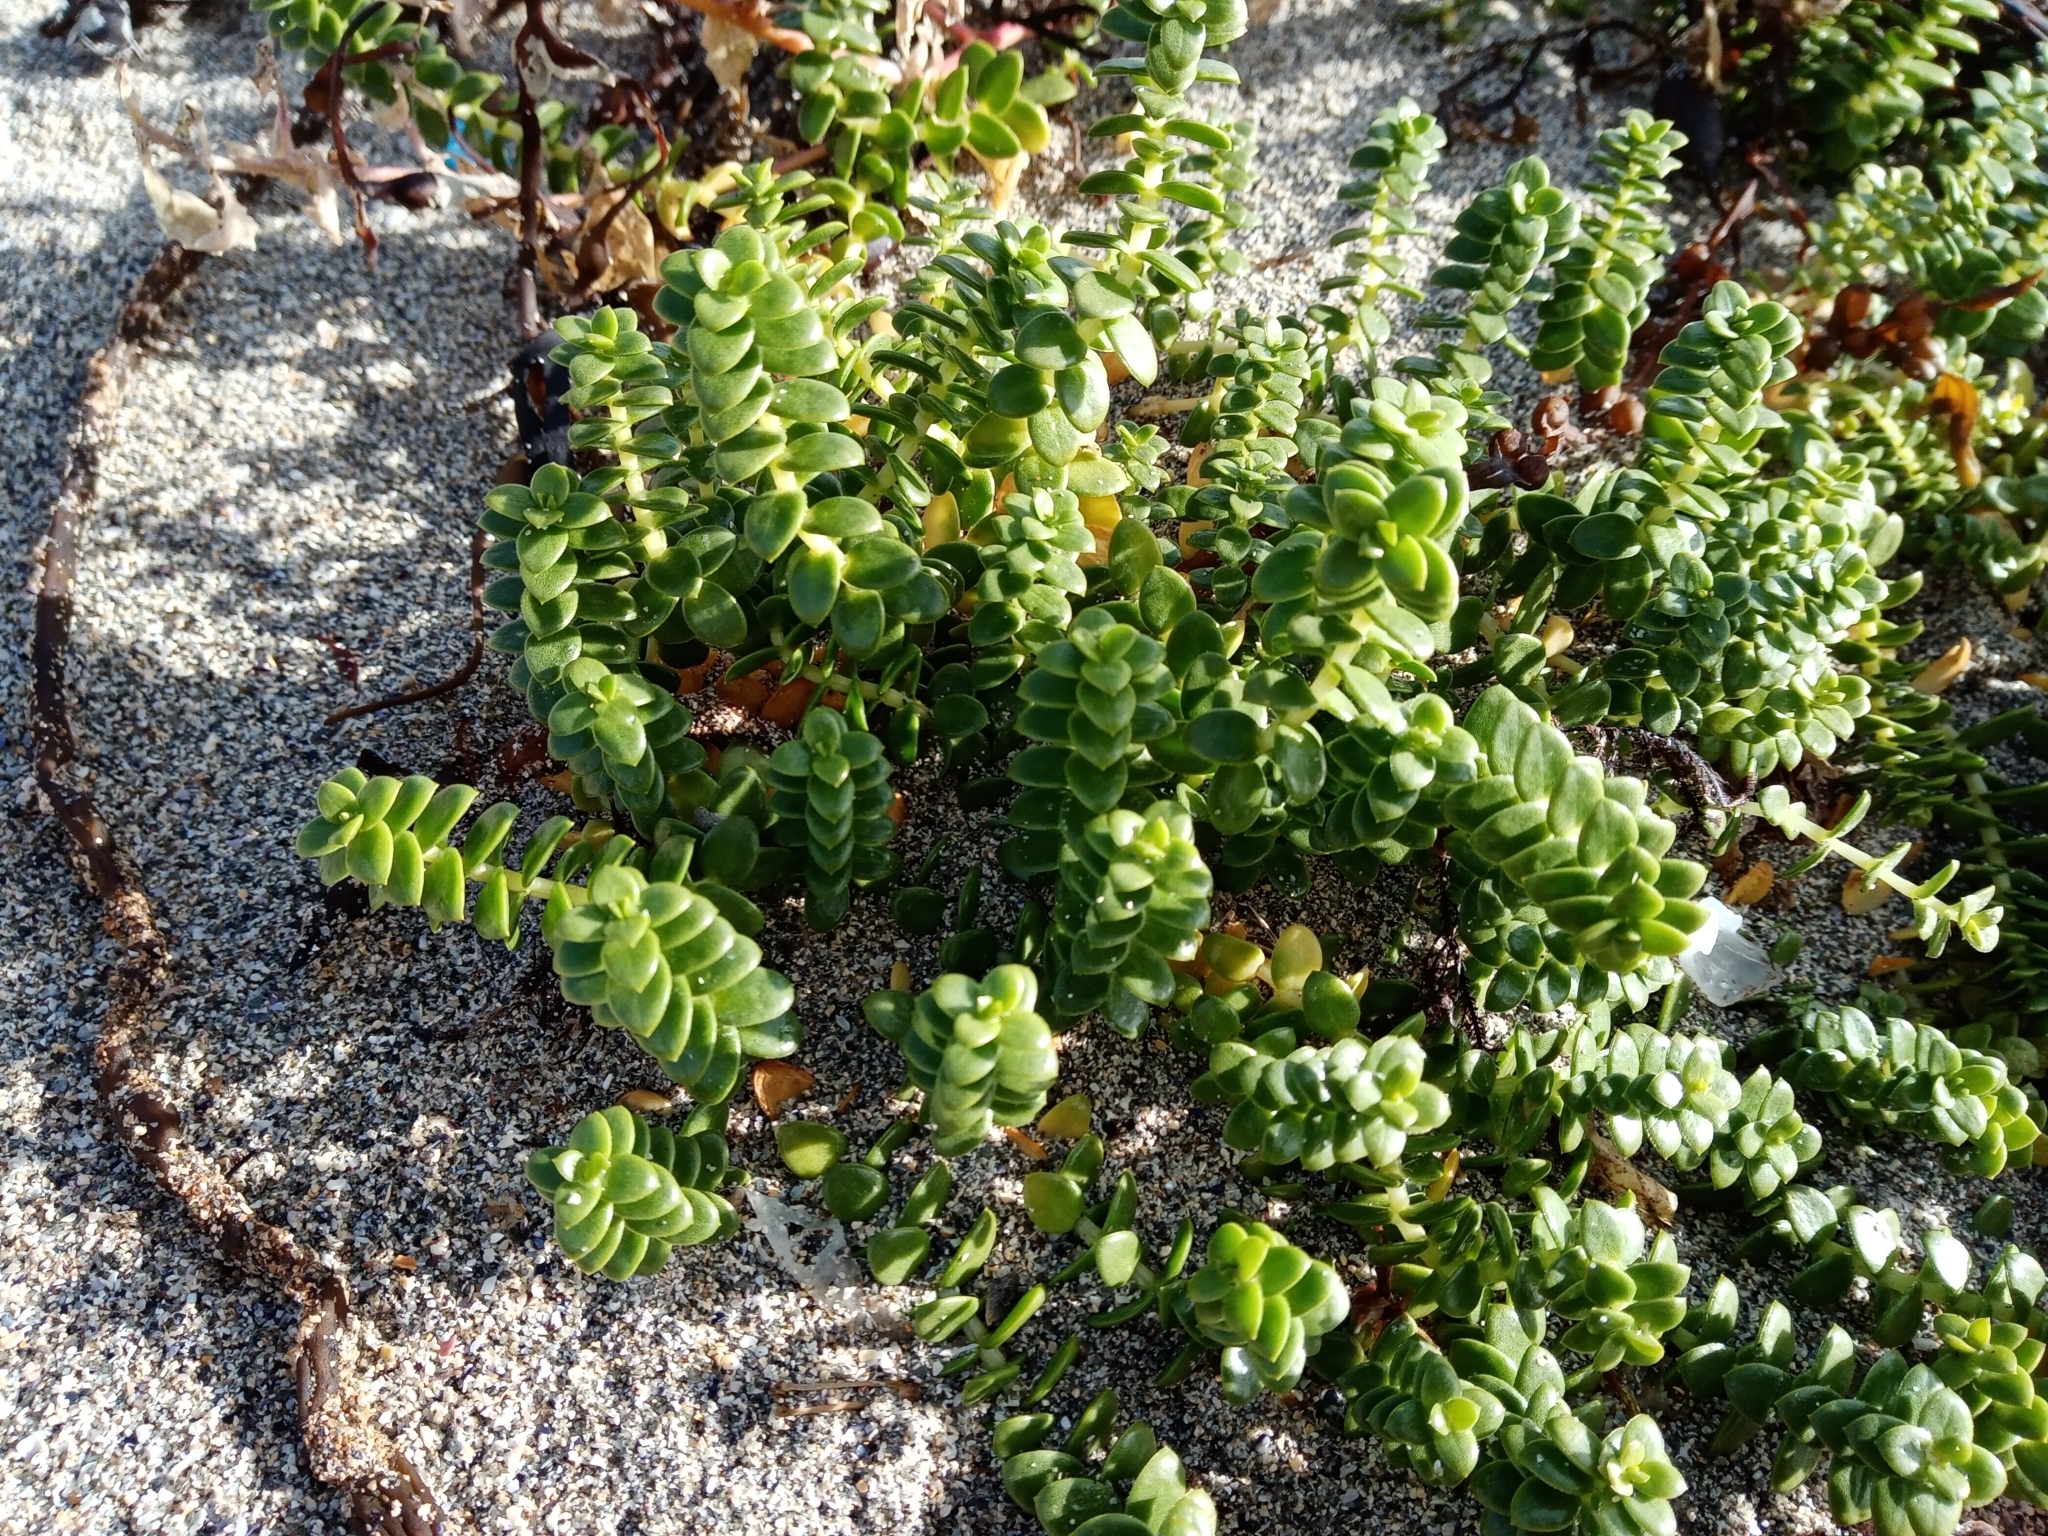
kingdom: Plantae
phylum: Tracheophyta
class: Magnoliopsida
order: Caryophyllales
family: Caryophyllaceae
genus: Honckenya
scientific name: Honckenya peploides
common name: Sea sandwort
